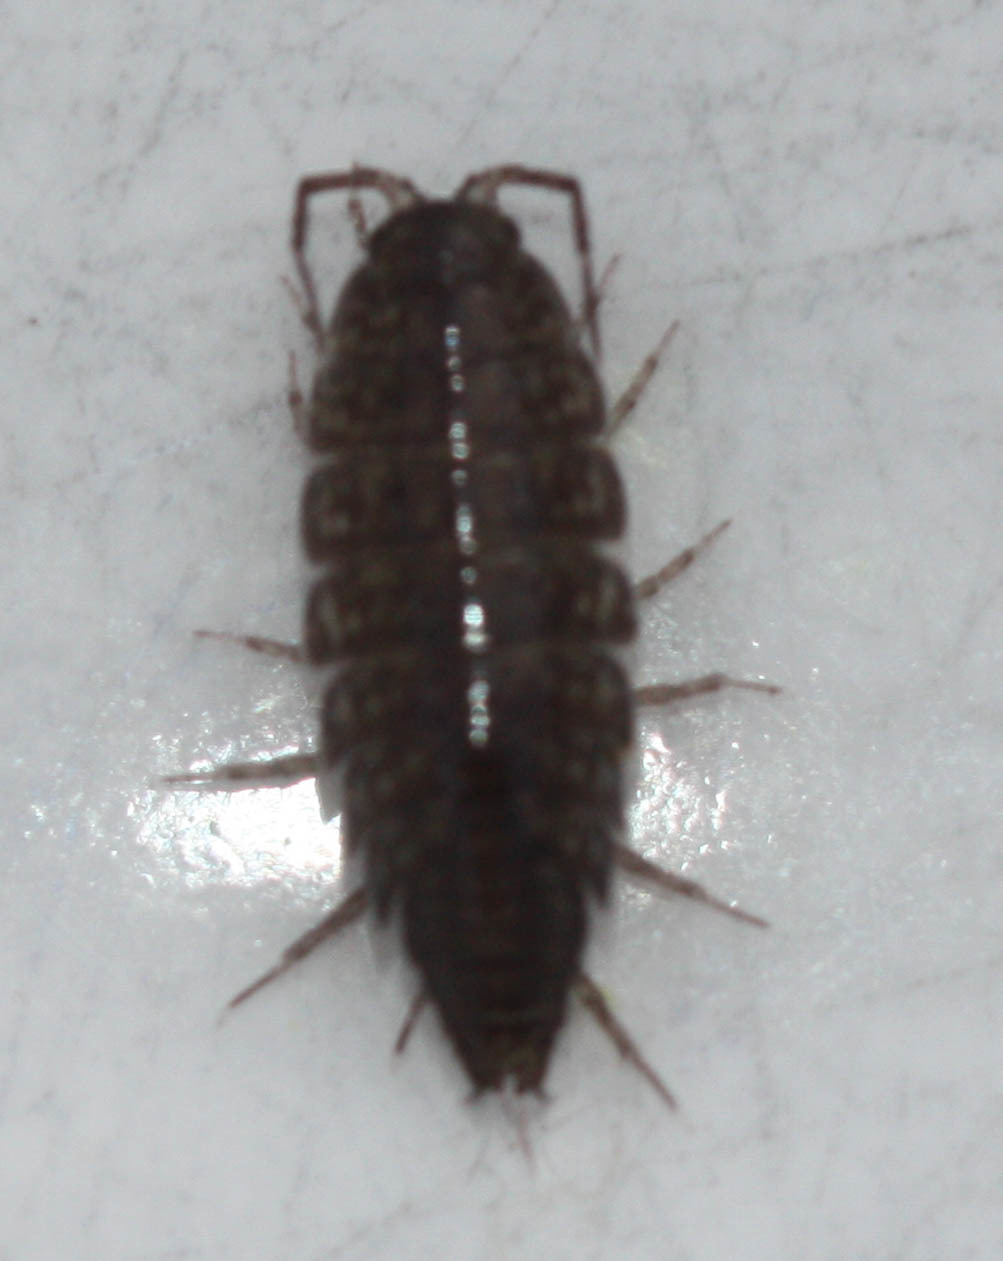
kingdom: Animalia
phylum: Arthropoda
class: Malacostraca
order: Isopoda
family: Ligiidae
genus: Ligidium
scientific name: Ligidium gracile
